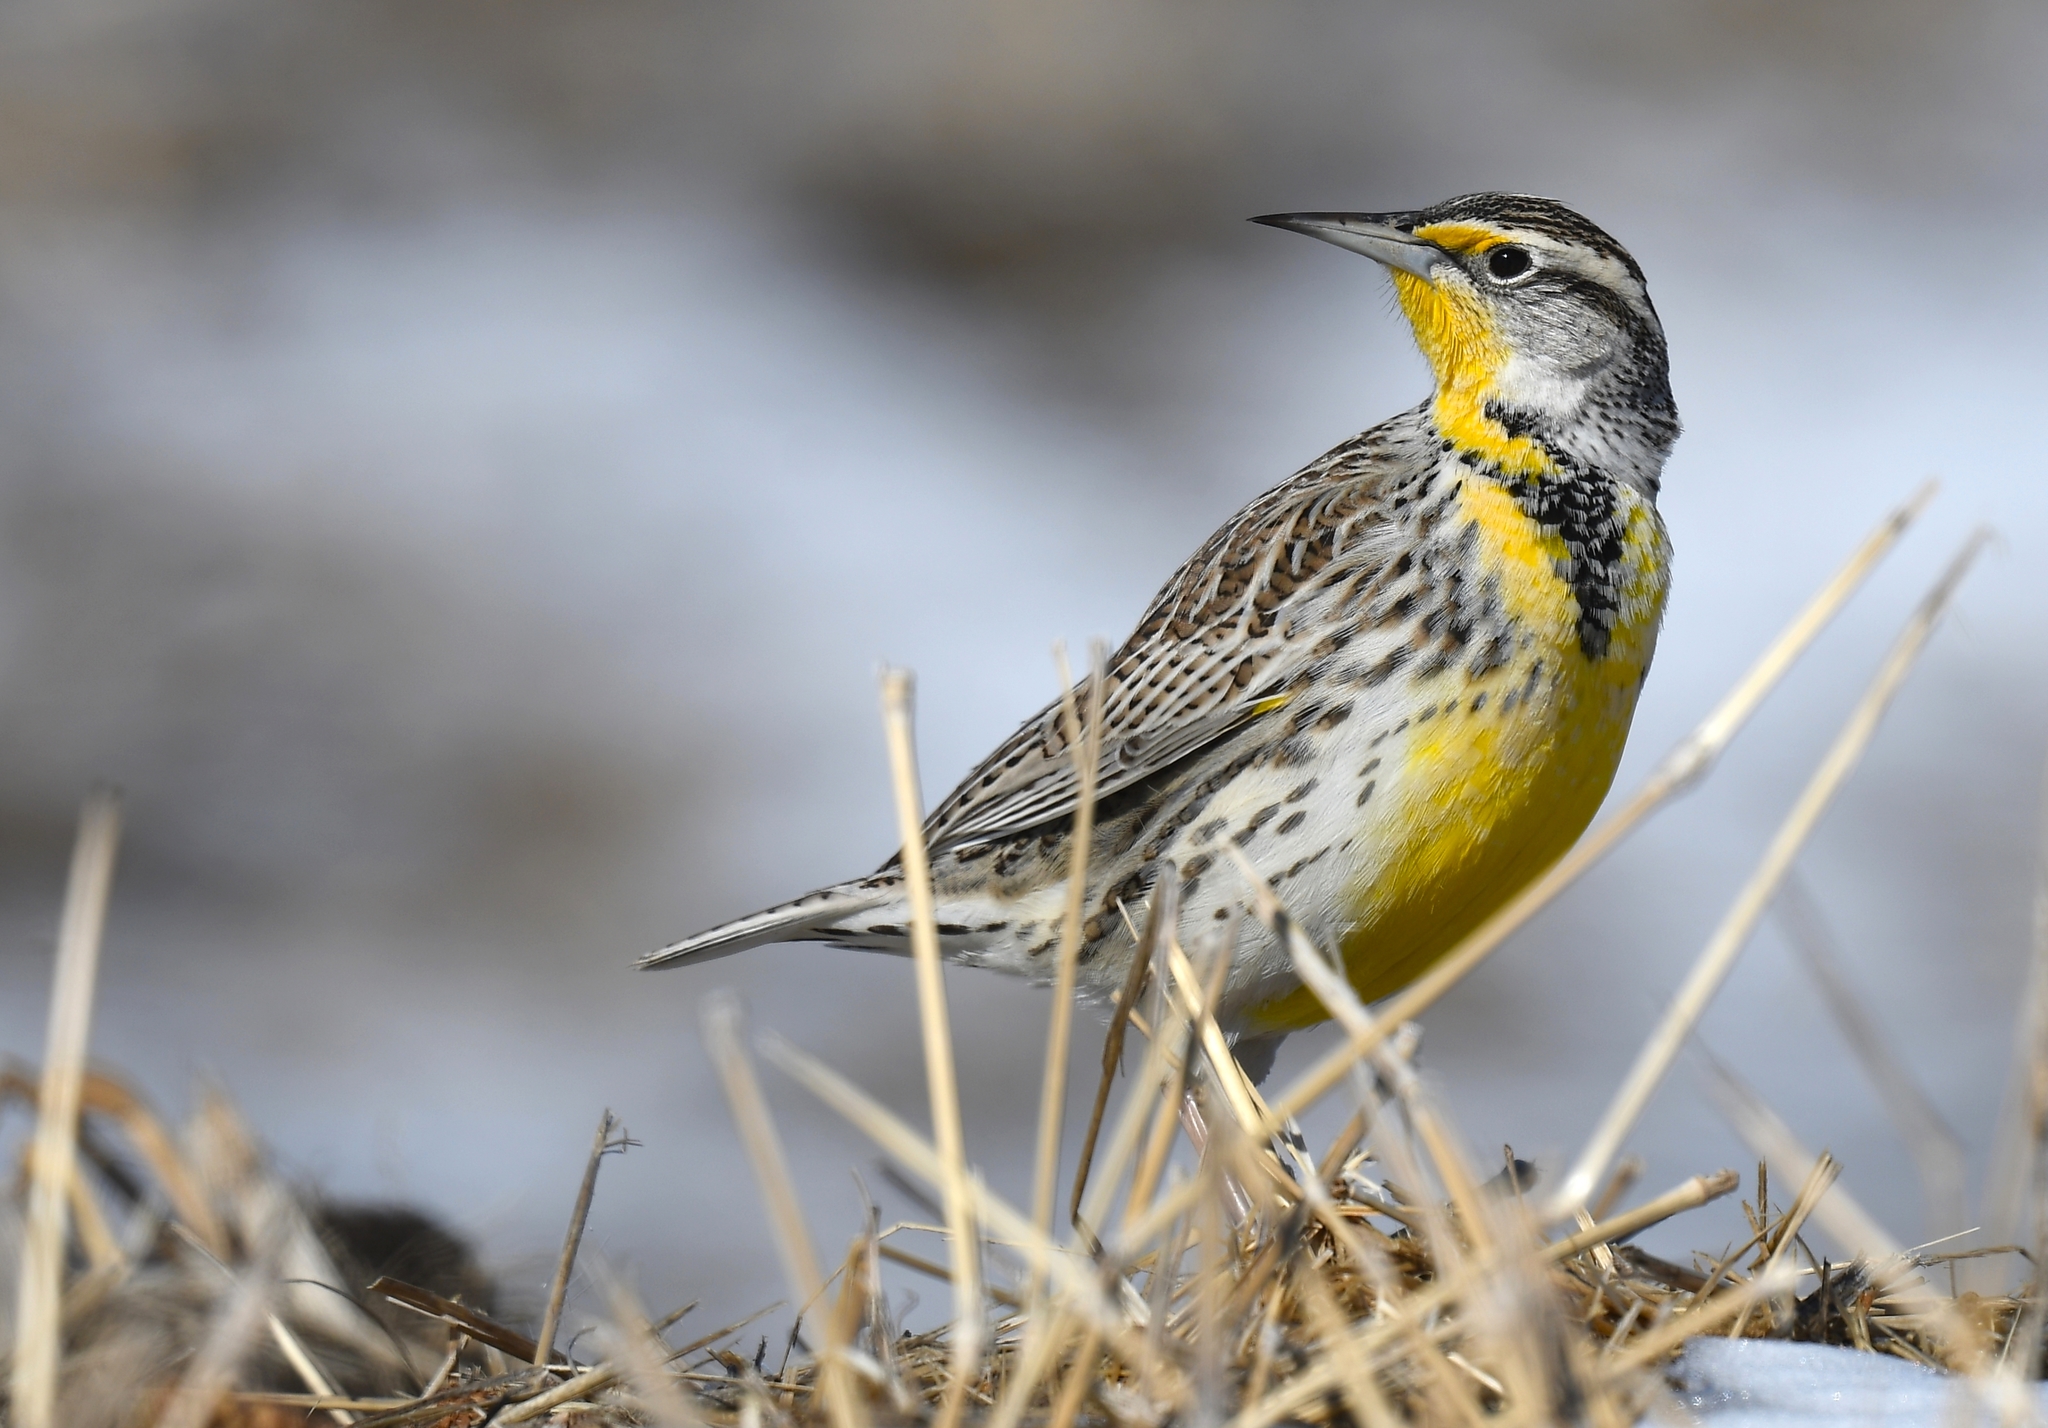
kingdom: Animalia
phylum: Chordata
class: Aves
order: Passeriformes
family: Icteridae
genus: Sturnella
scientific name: Sturnella neglecta
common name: Western meadowlark
